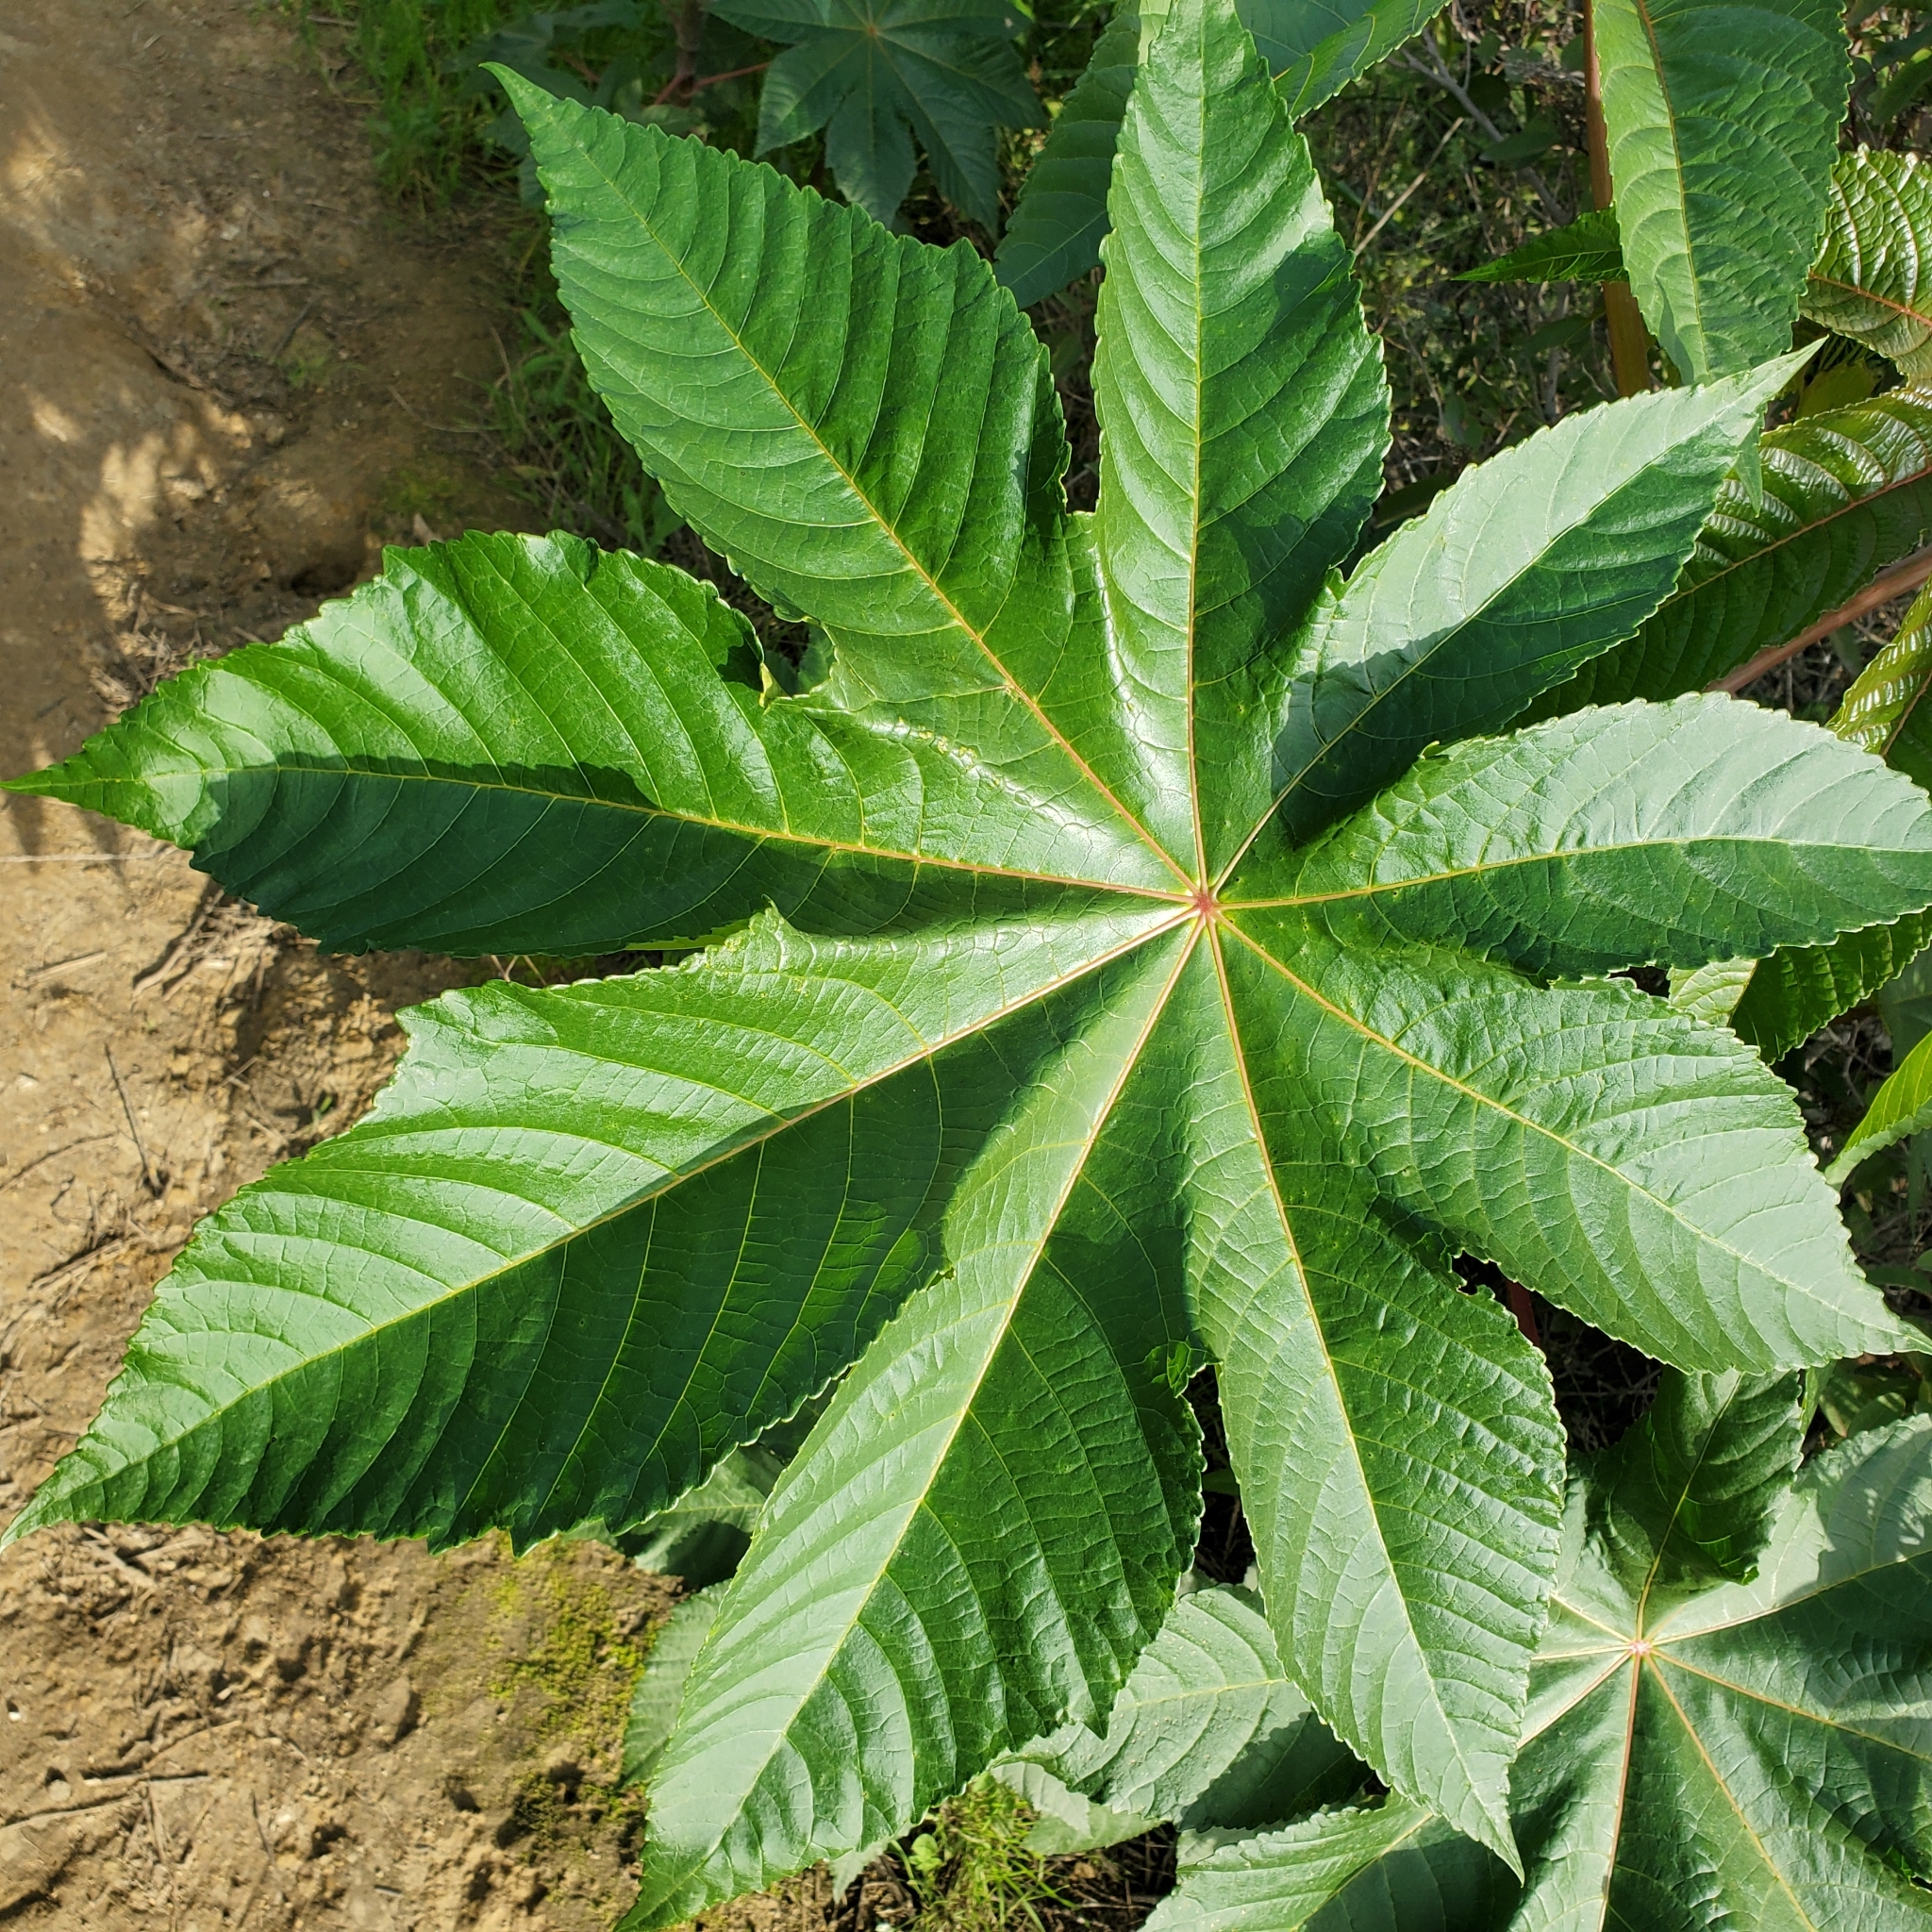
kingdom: Plantae
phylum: Tracheophyta
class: Magnoliopsida
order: Malpighiales
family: Euphorbiaceae
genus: Ricinus
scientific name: Ricinus communis
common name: Castor-oil-plant
